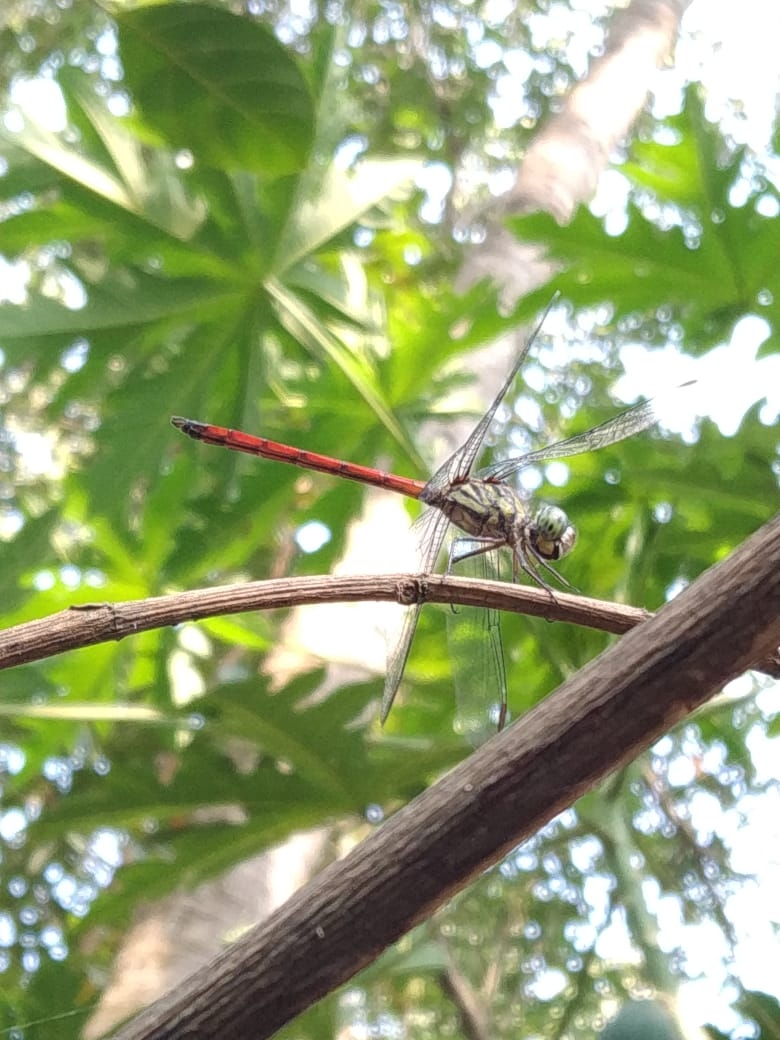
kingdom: Animalia
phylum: Arthropoda
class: Insecta
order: Odonata
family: Libellulidae
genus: Lathrecista
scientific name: Lathrecista asiatica
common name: Scarlet grenadier
